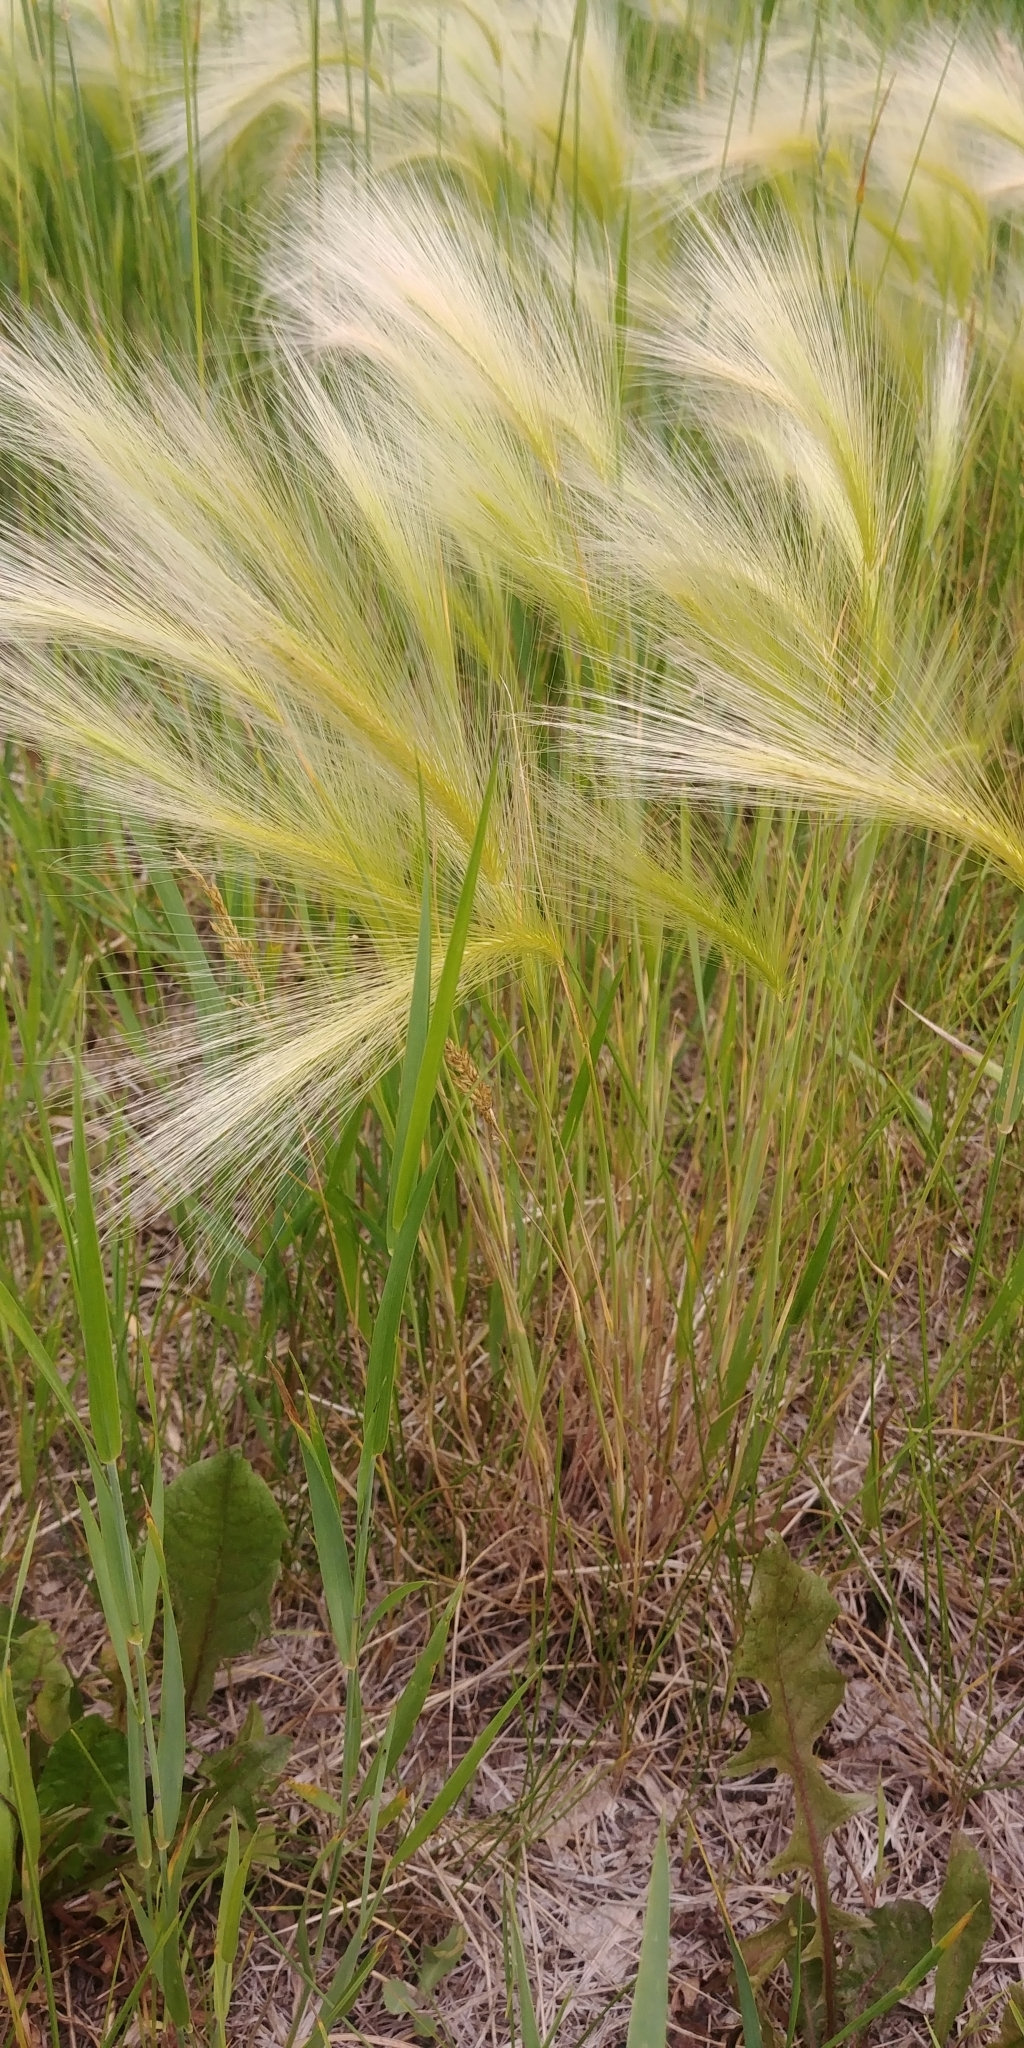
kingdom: Plantae
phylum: Tracheophyta
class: Liliopsida
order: Poales
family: Poaceae
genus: Hordeum
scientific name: Hordeum jubatum
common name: Foxtail barley
